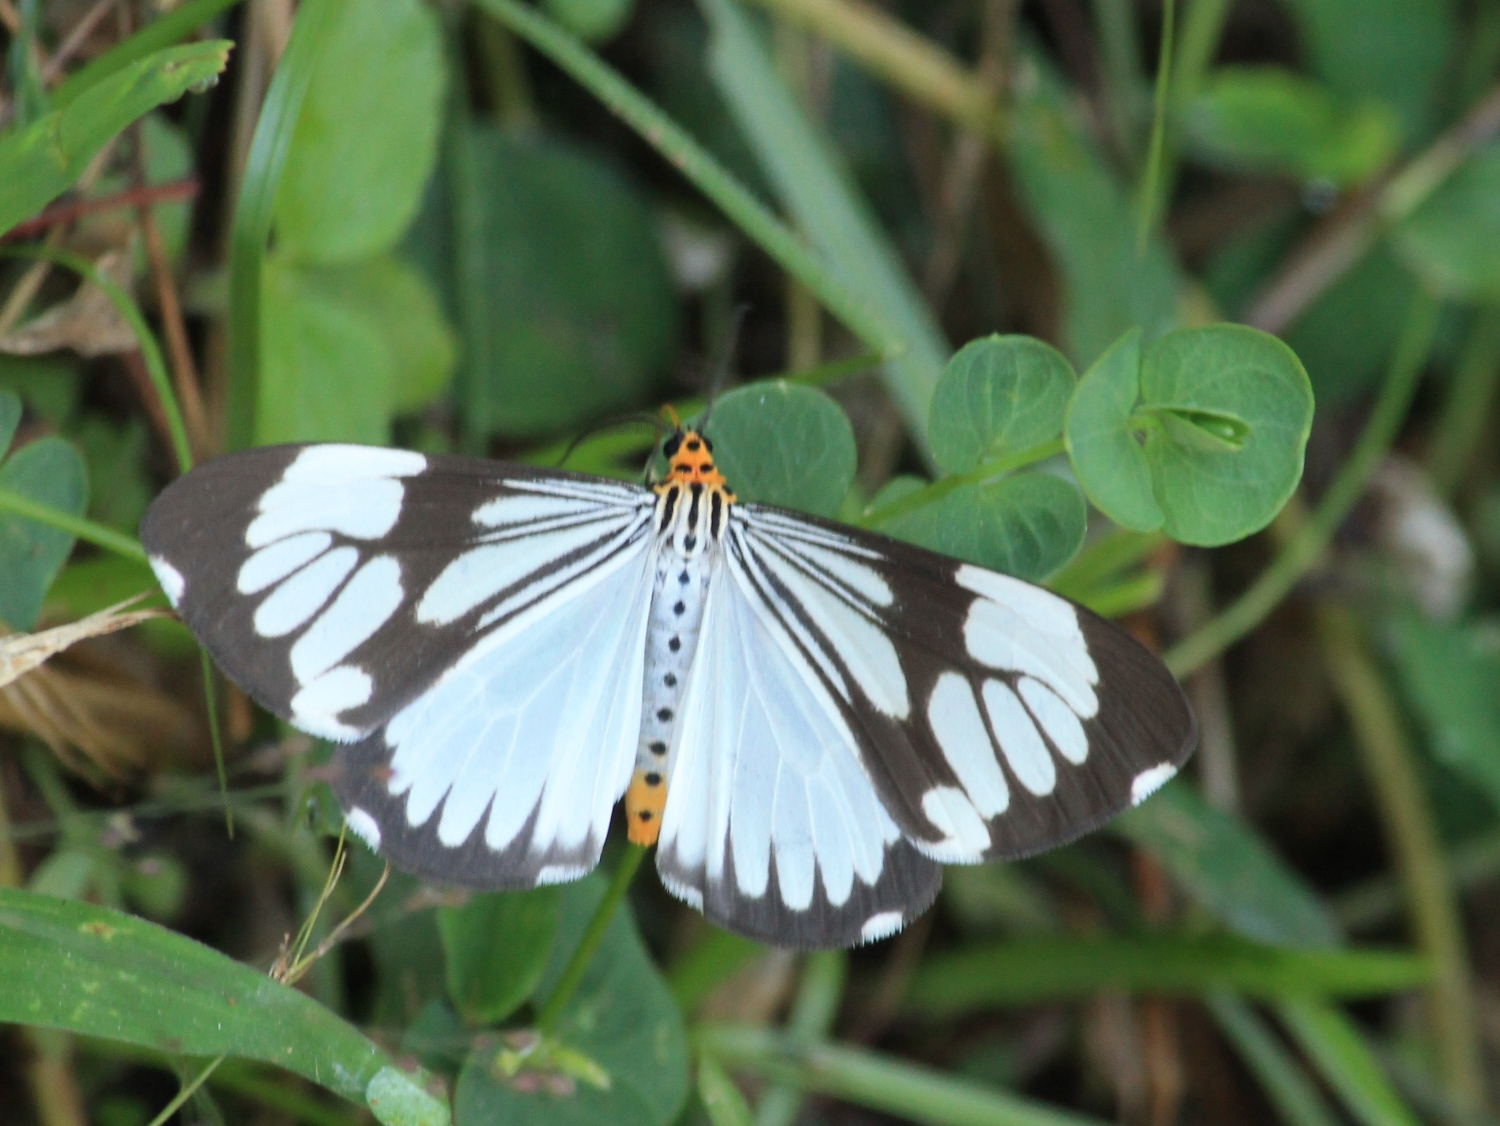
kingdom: Animalia
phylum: Arthropoda
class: Insecta
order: Lepidoptera
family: Erebidae
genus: Nyctemera
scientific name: Nyctemera coleta
